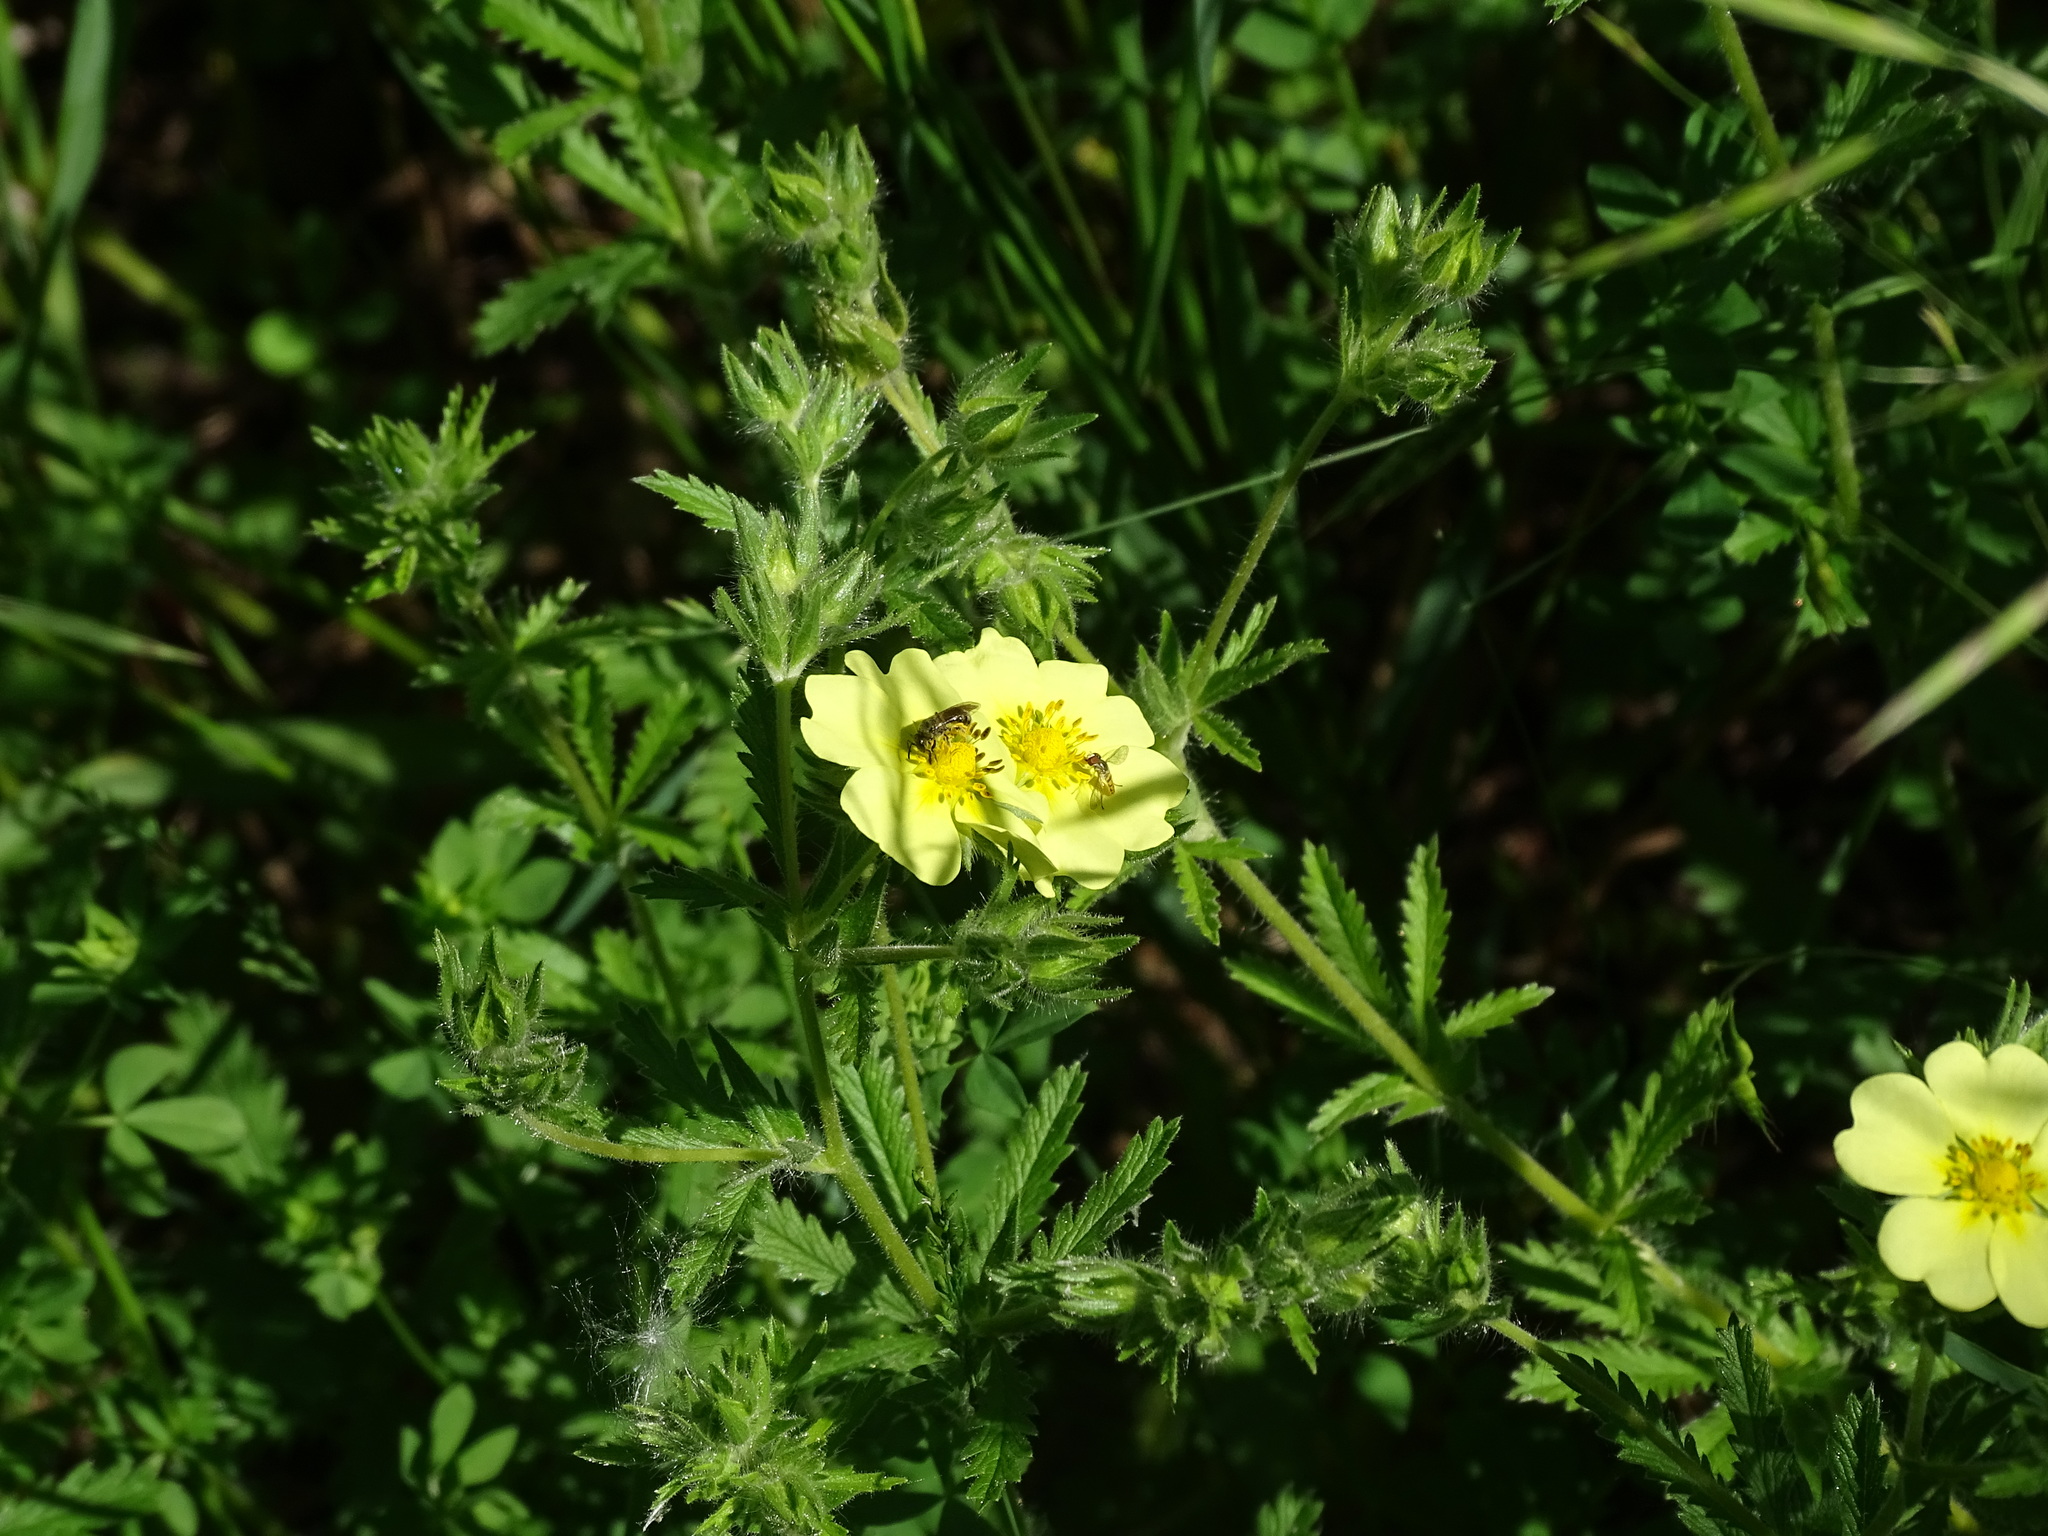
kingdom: Plantae
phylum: Tracheophyta
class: Magnoliopsida
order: Rosales
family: Rosaceae
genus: Potentilla
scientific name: Potentilla recta
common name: Sulphur cinquefoil
